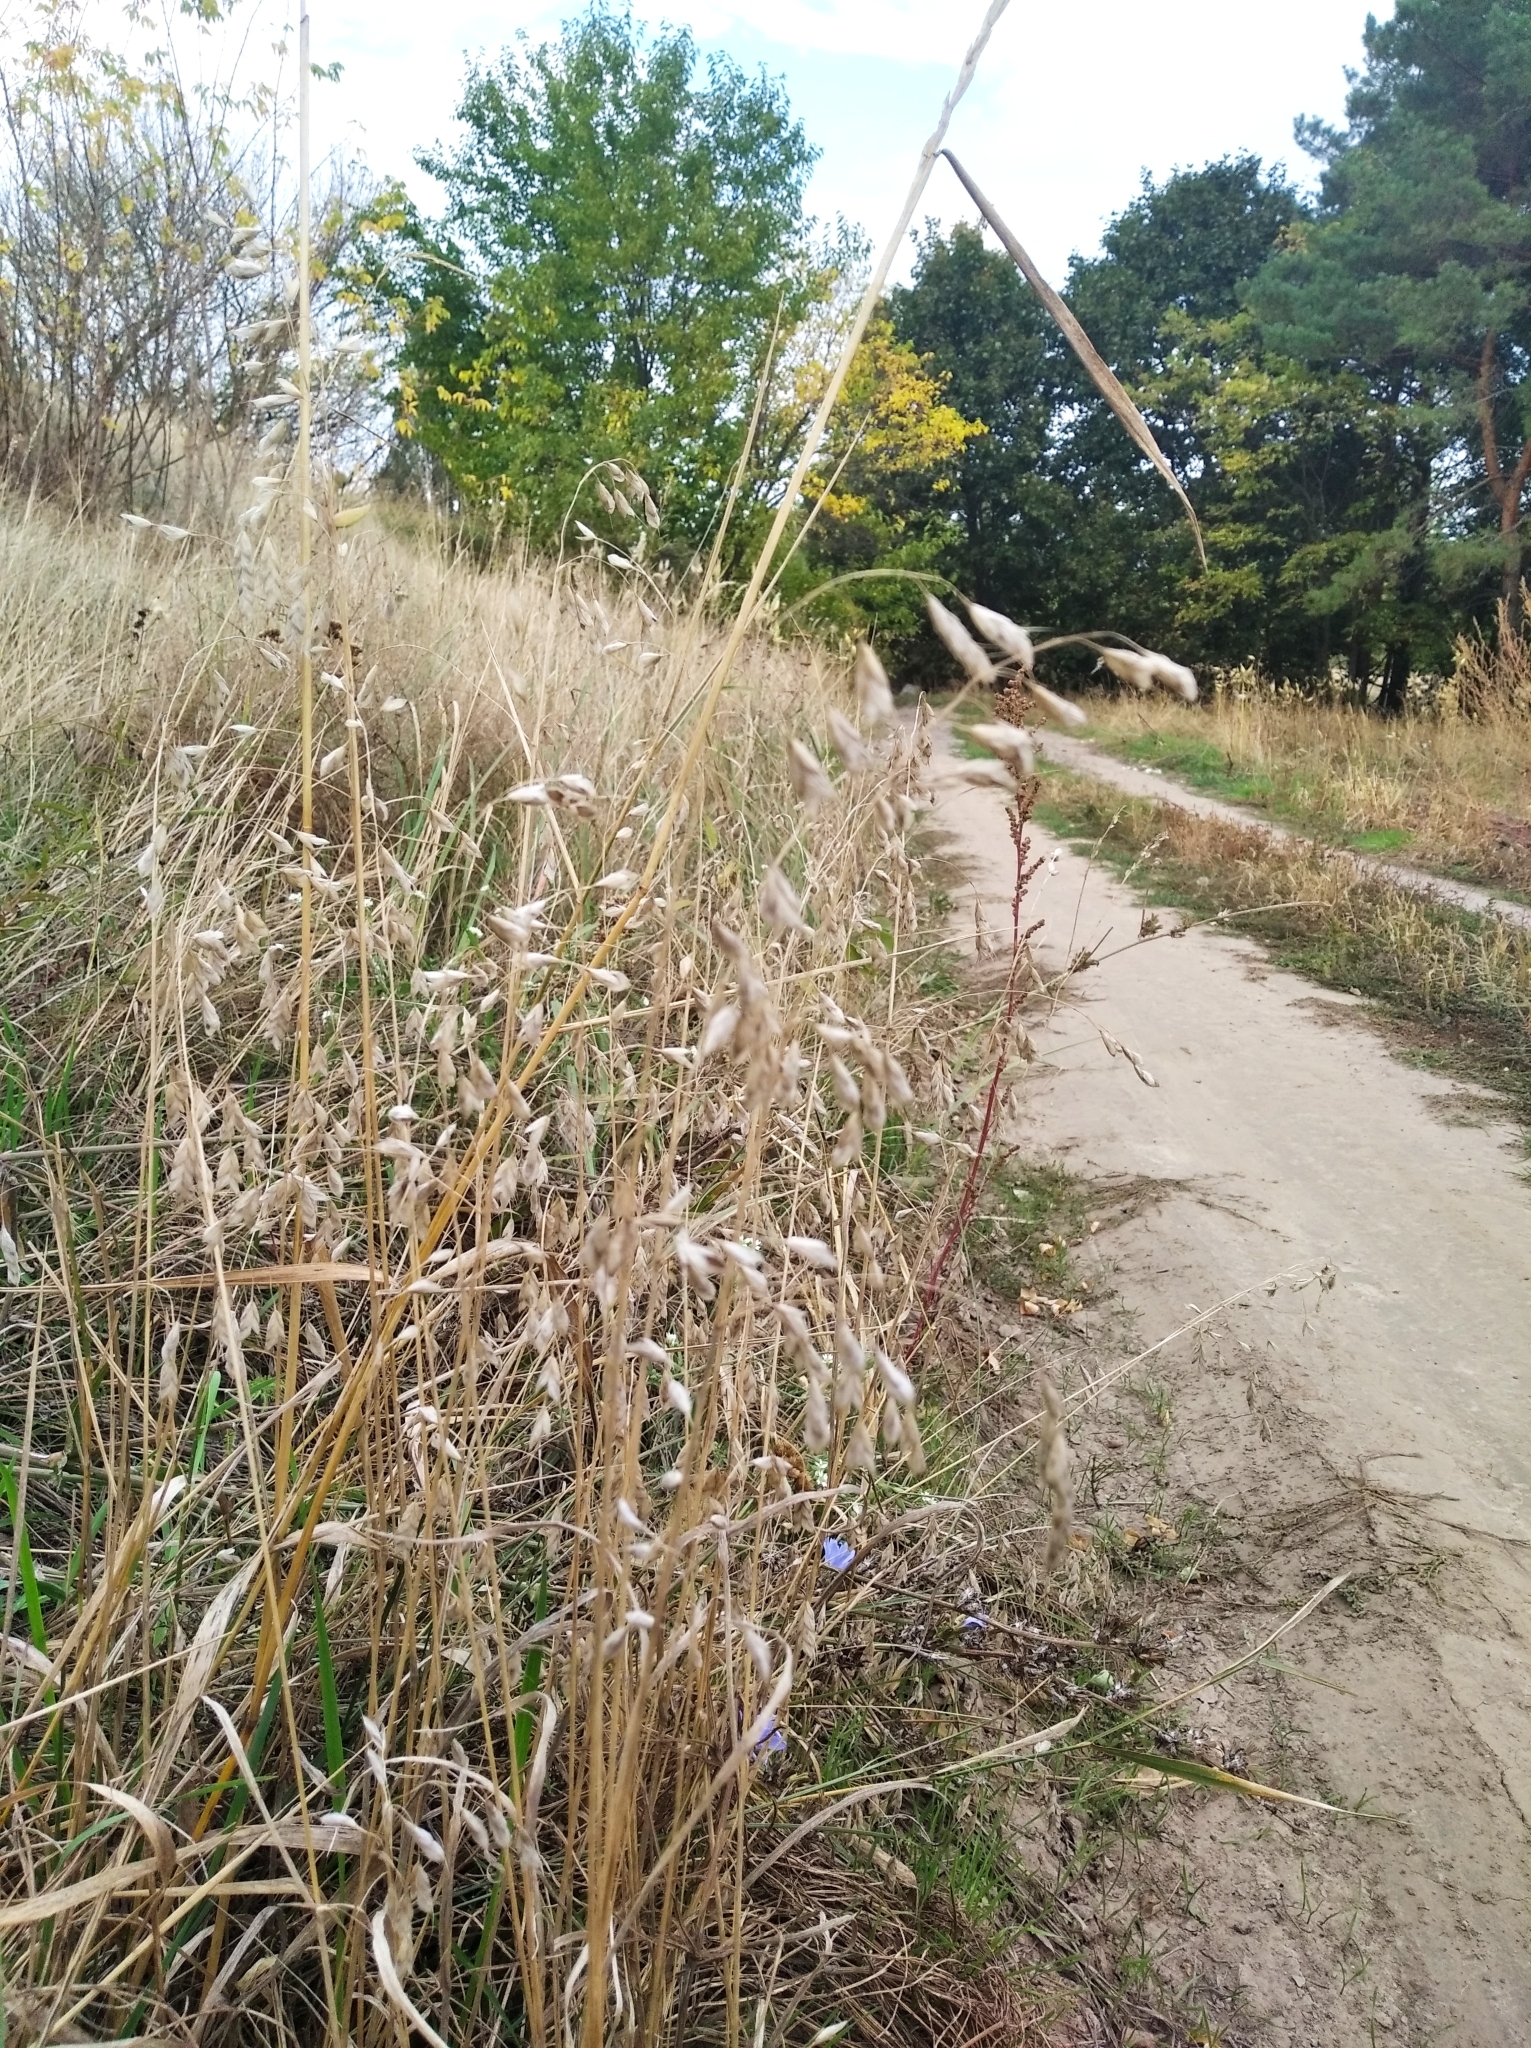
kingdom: Plantae
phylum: Tracheophyta
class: Liliopsida
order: Poales
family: Poaceae
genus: Bromus
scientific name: Bromus squarrosus
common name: Corn brome
